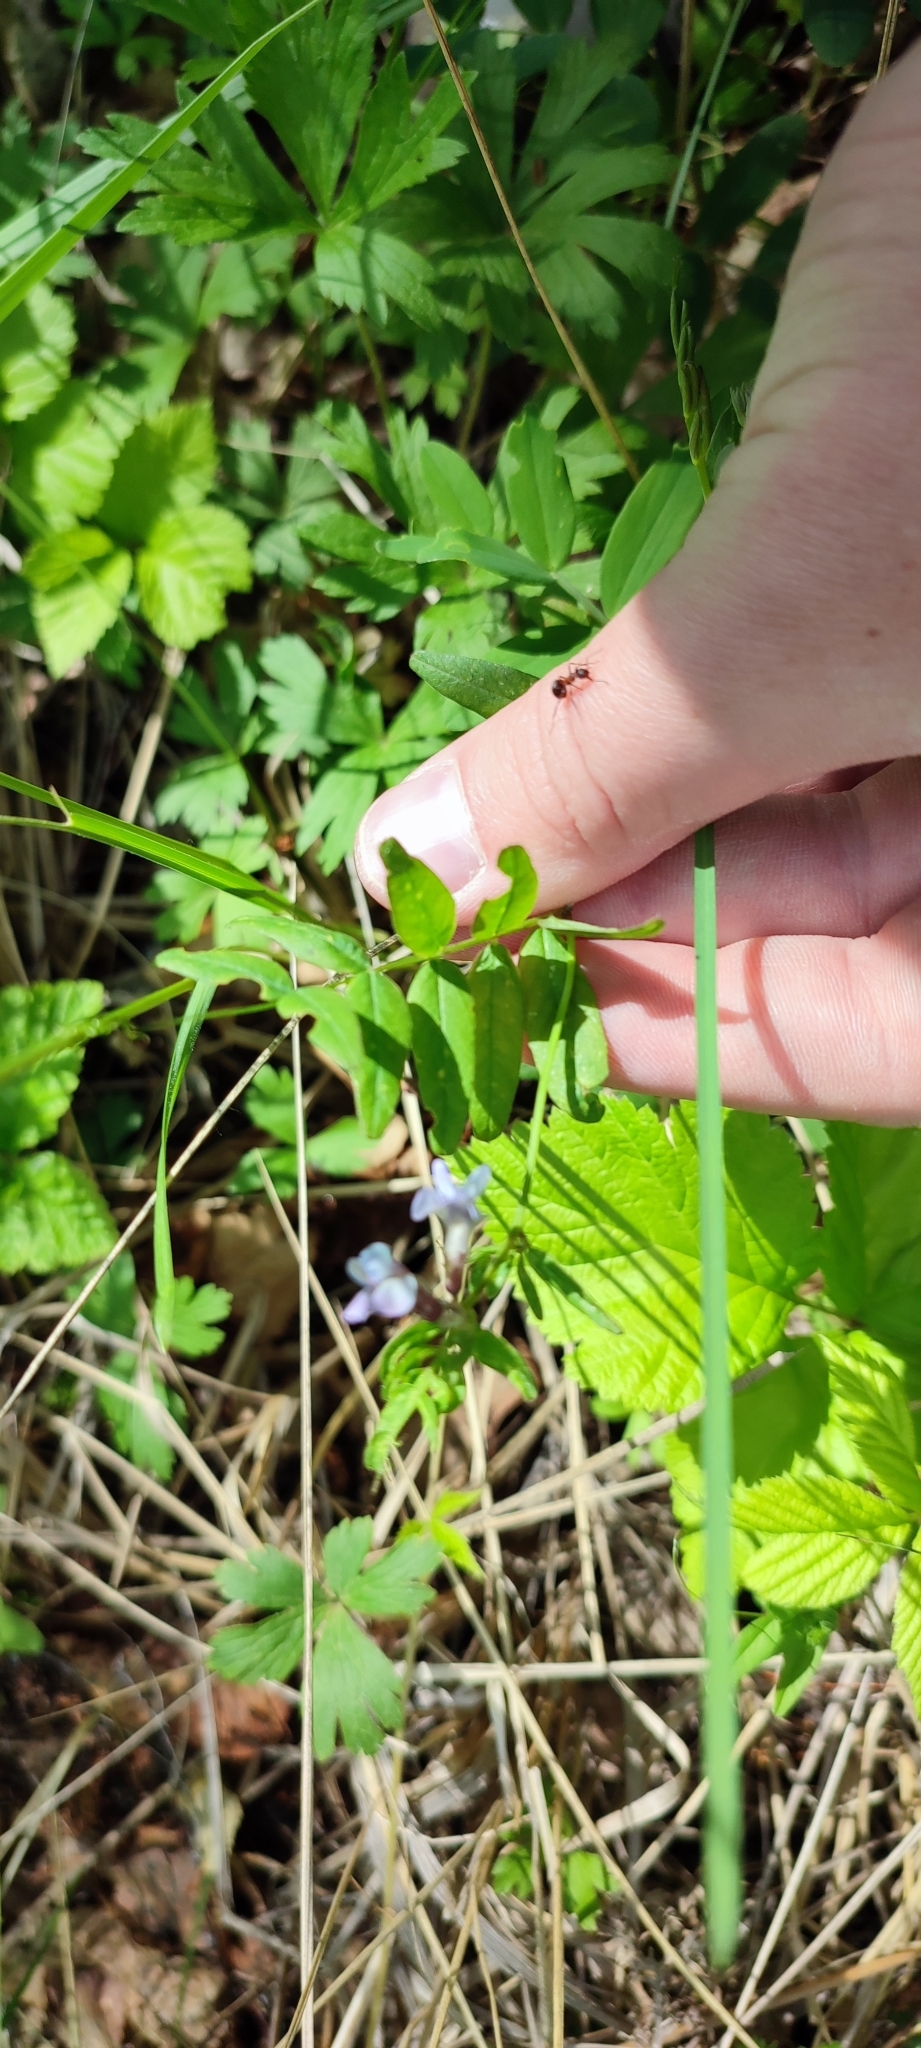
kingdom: Plantae
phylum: Tracheophyta
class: Magnoliopsida
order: Fabales
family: Fabaceae
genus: Vicia
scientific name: Vicia sepium
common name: Bush vetch
